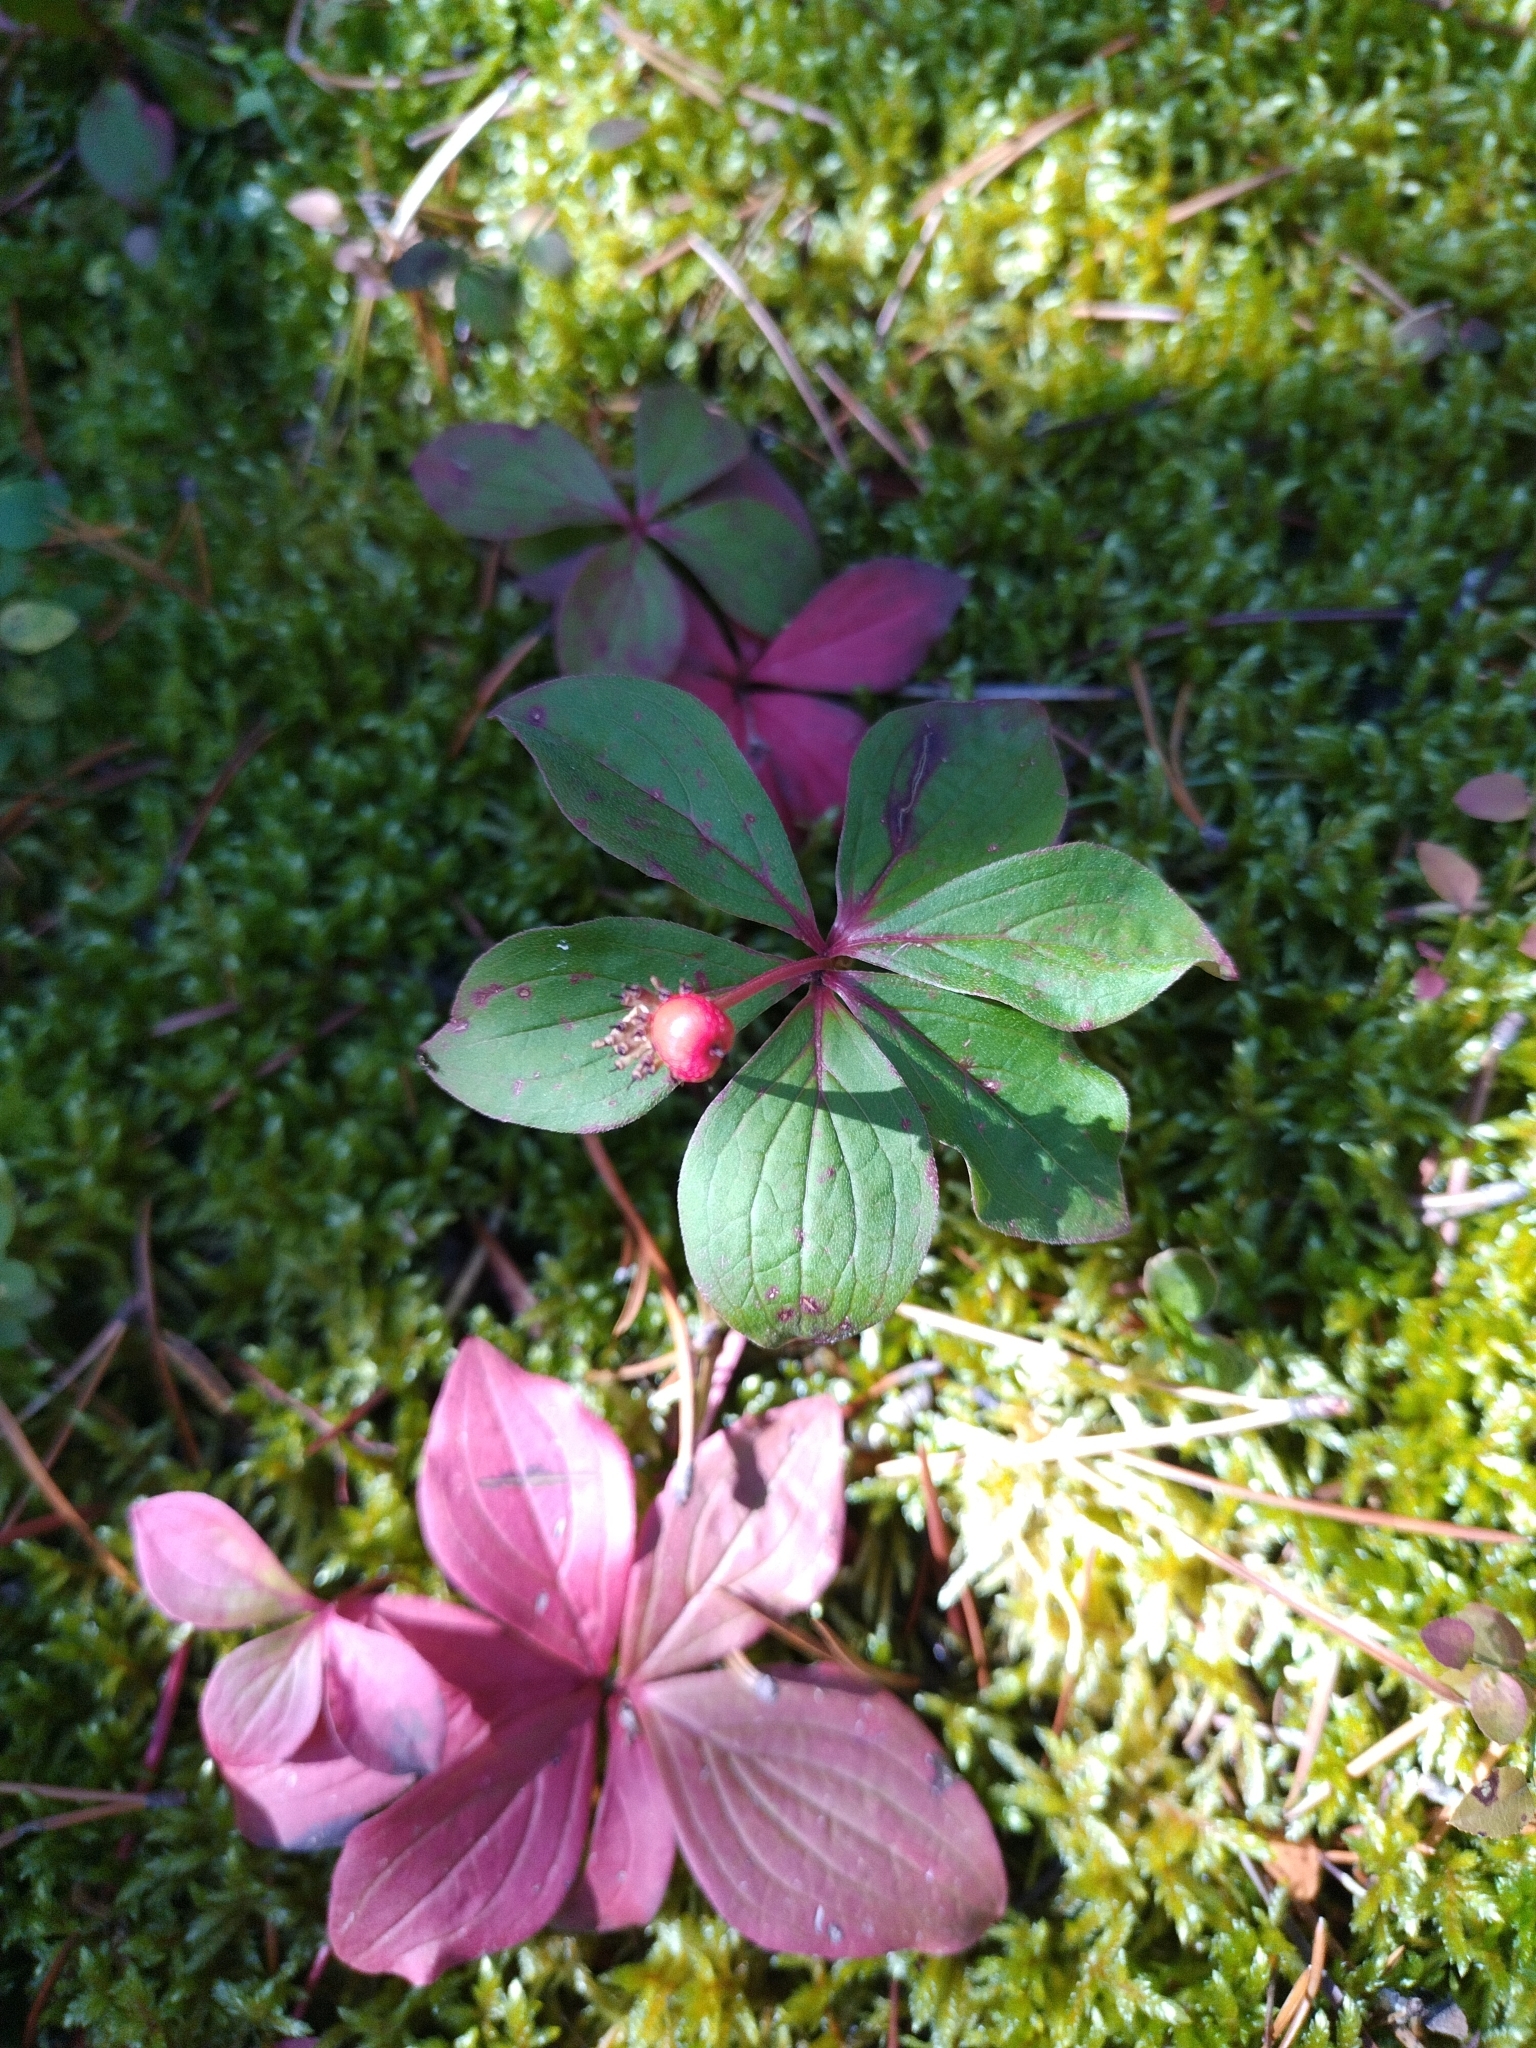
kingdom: Plantae
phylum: Tracheophyta
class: Magnoliopsida
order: Cornales
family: Cornaceae
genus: Cornus
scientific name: Cornus canadensis
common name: Creeping dogwood
